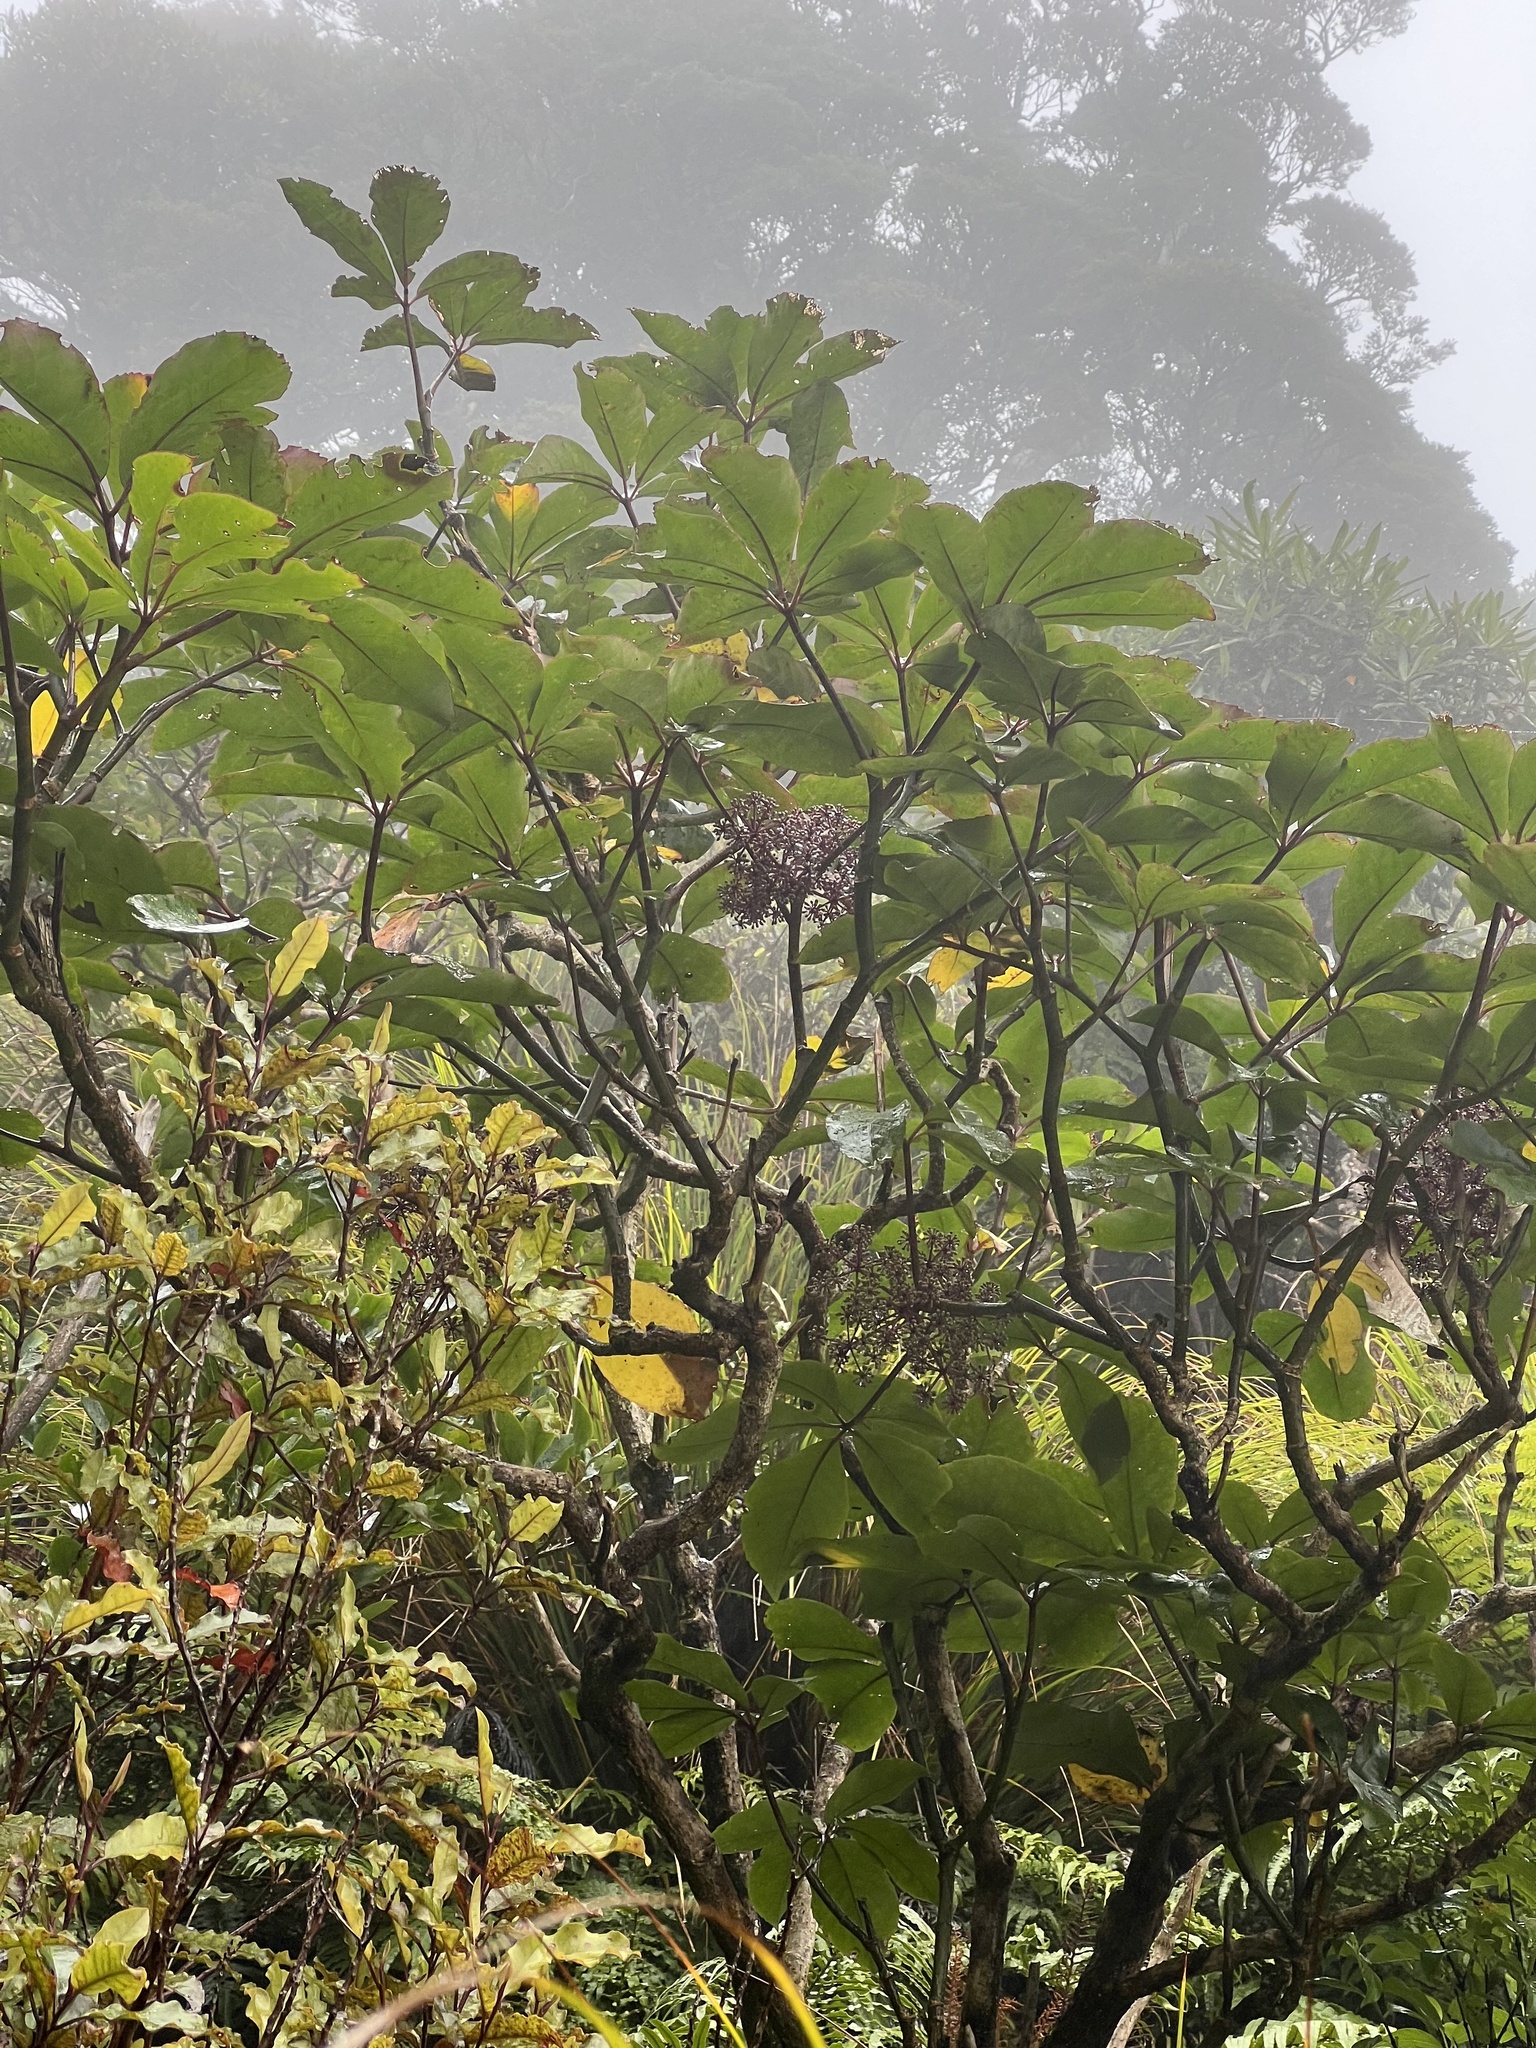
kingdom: Plantae
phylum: Tracheophyta
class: Magnoliopsida
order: Apiales
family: Araliaceae
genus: Neopanax
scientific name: Neopanax laetus
